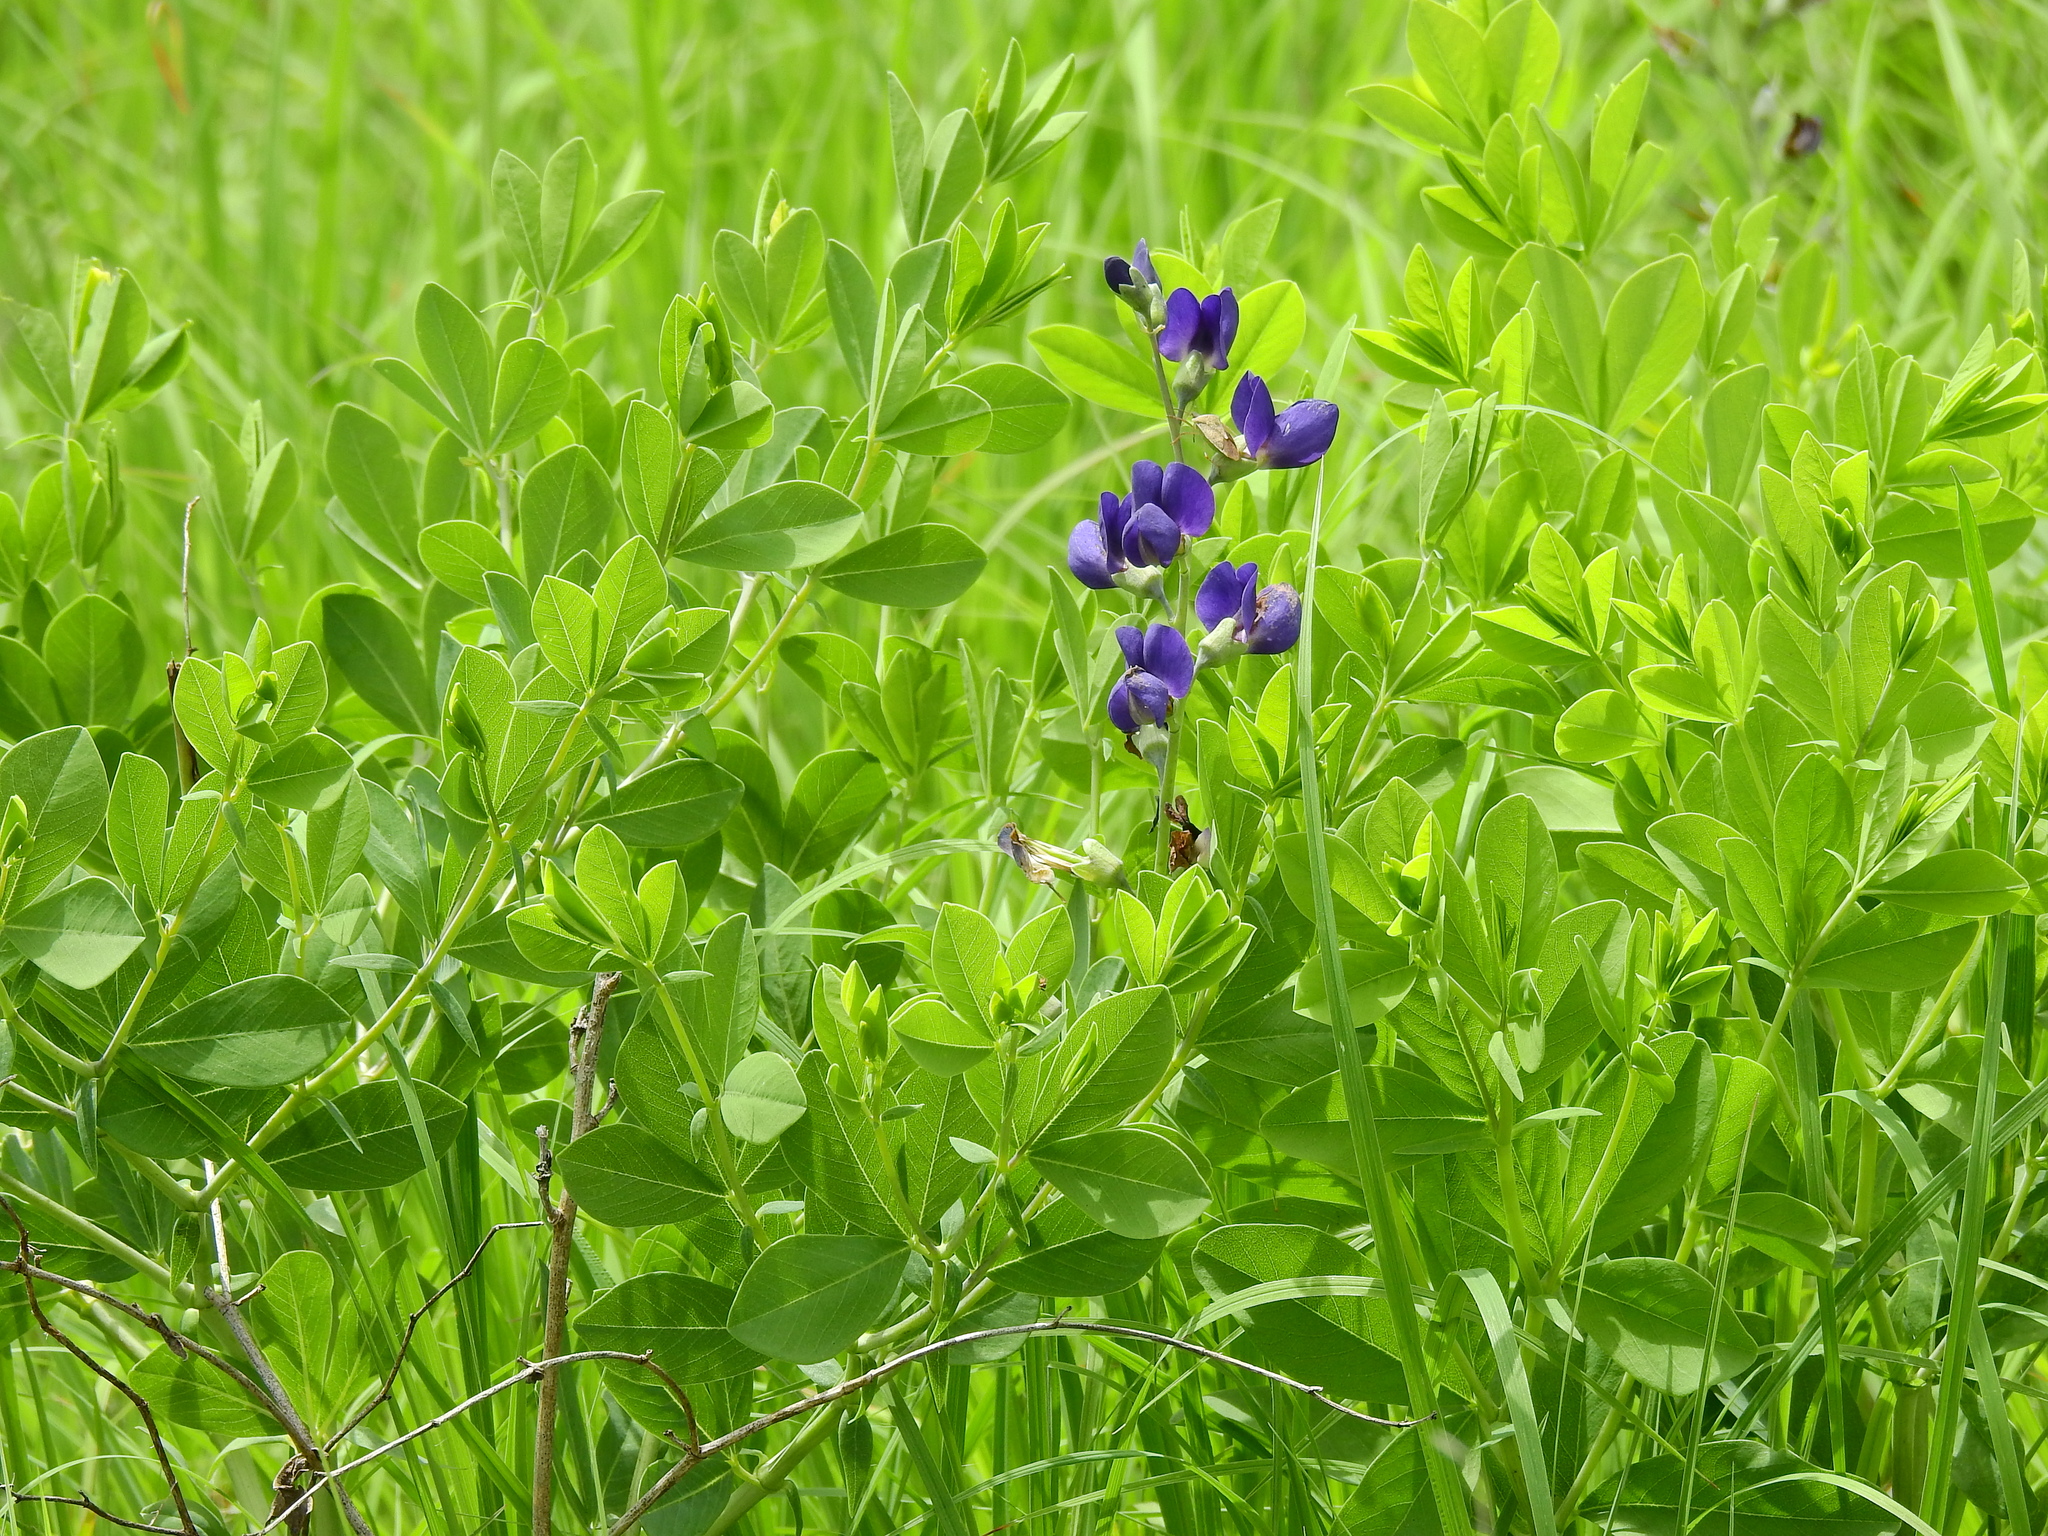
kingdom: Plantae
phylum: Tracheophyta
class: Magnoliopsida
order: Fabales
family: Fabaceae
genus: Baptisia
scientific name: Baptisia australis
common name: Blue false indigo
